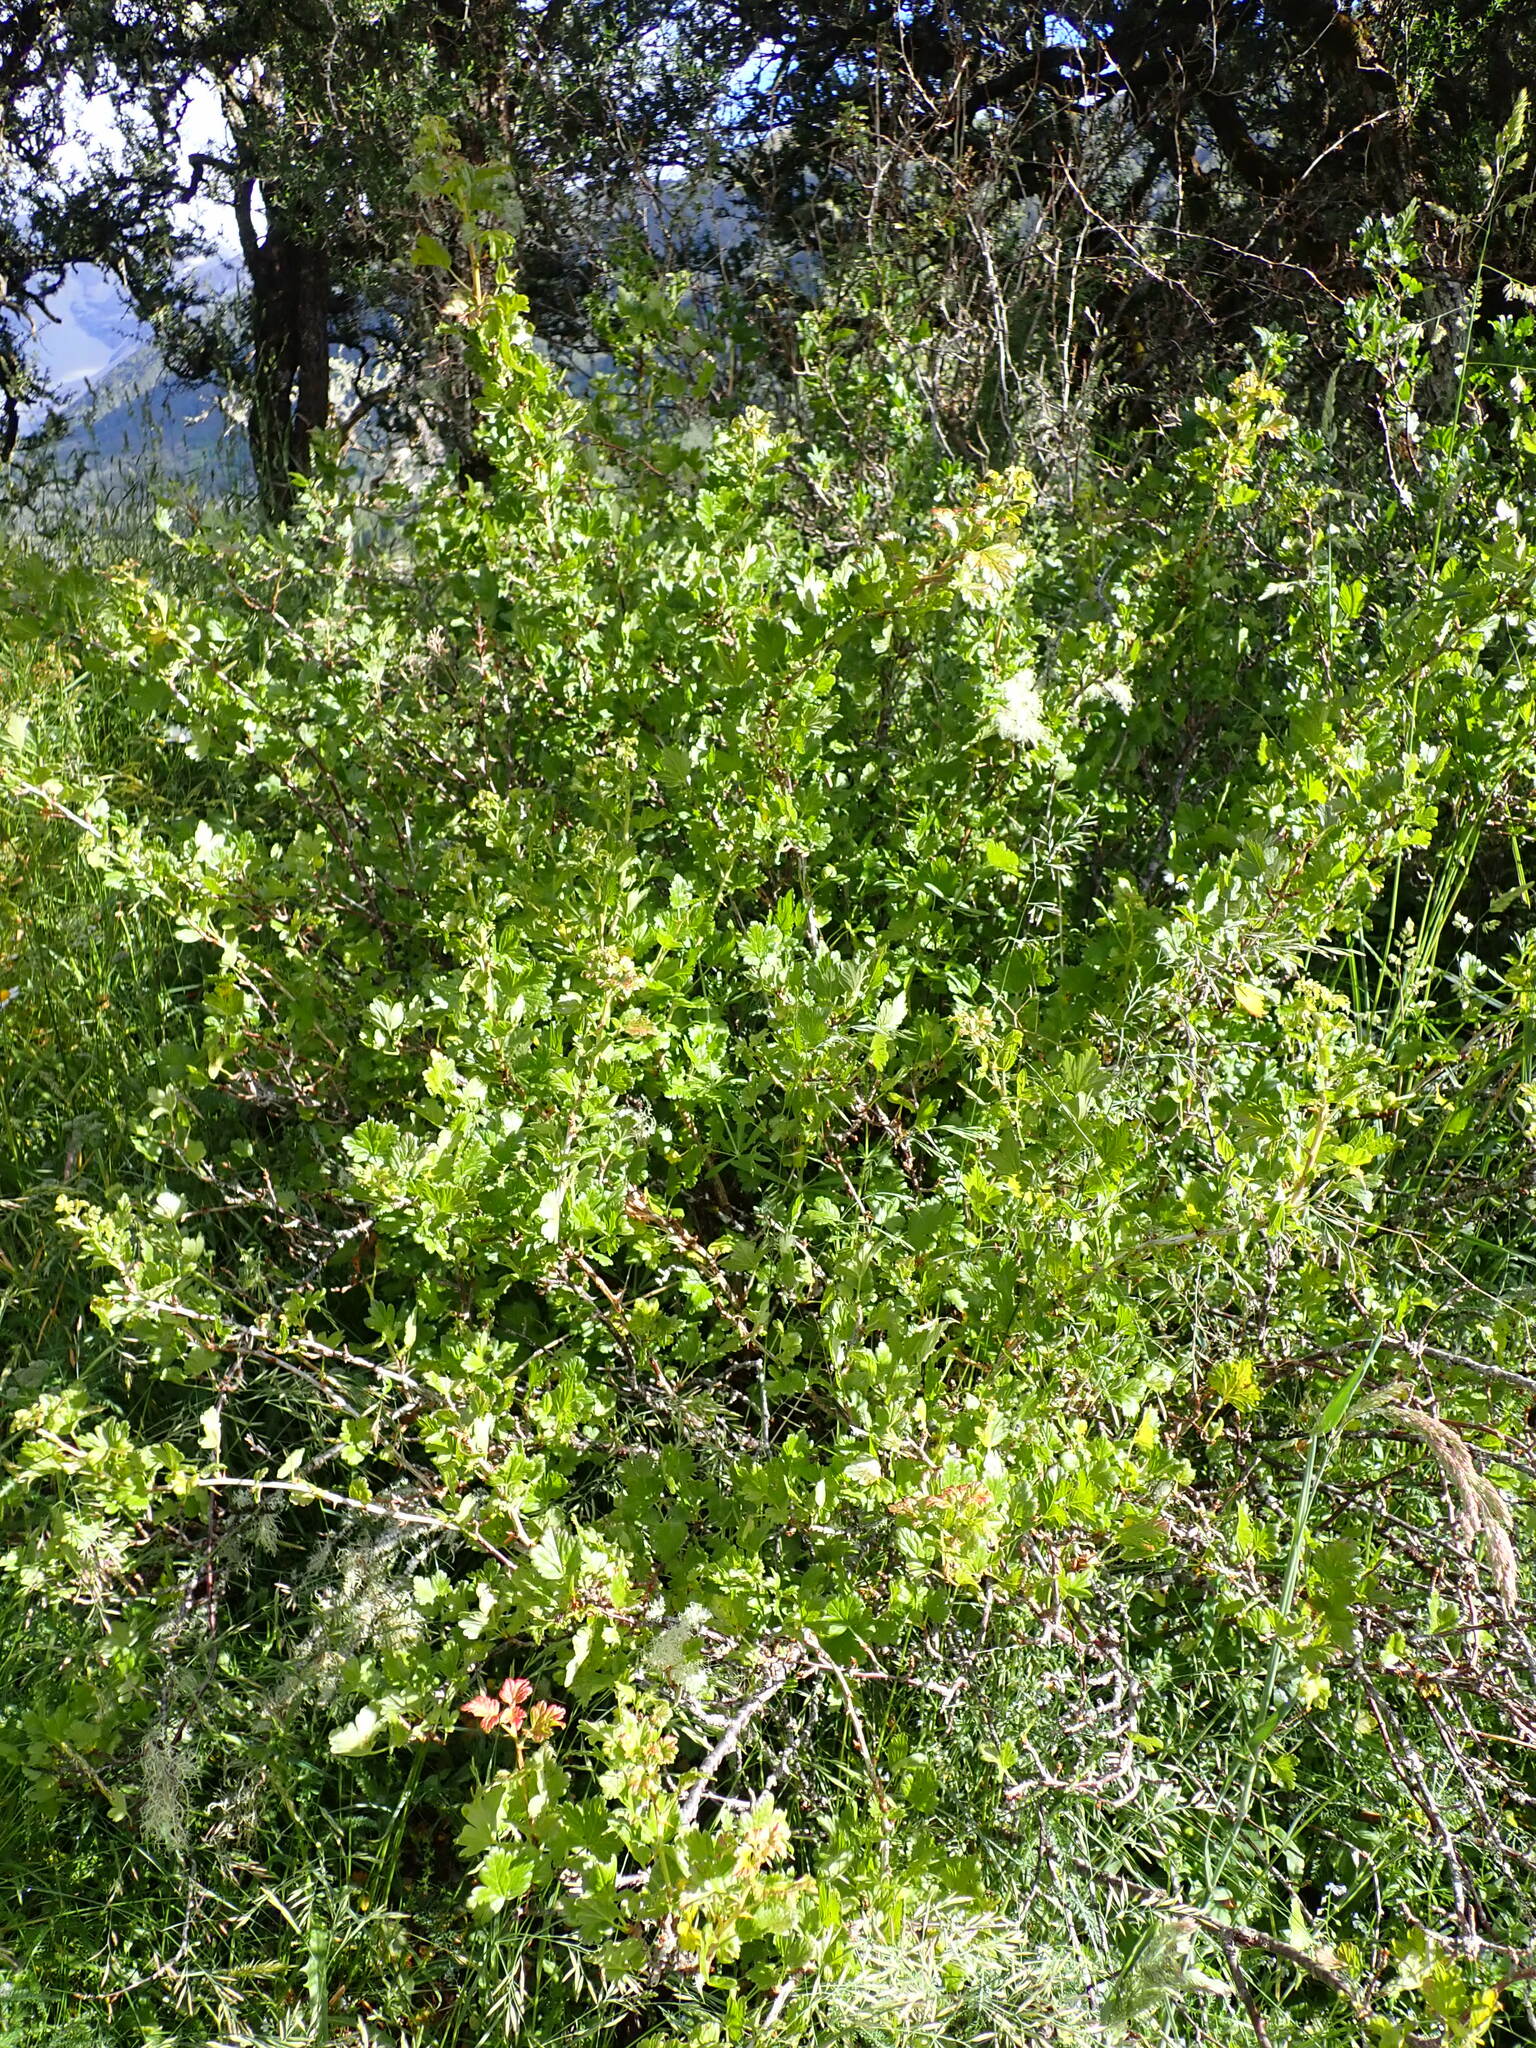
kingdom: Plantae
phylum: Tracheophyta
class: Magnoliopsida
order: Saxifragales
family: Grossulariaceae
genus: Ribes
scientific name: Ribes uva-crispa
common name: Gooseberry
